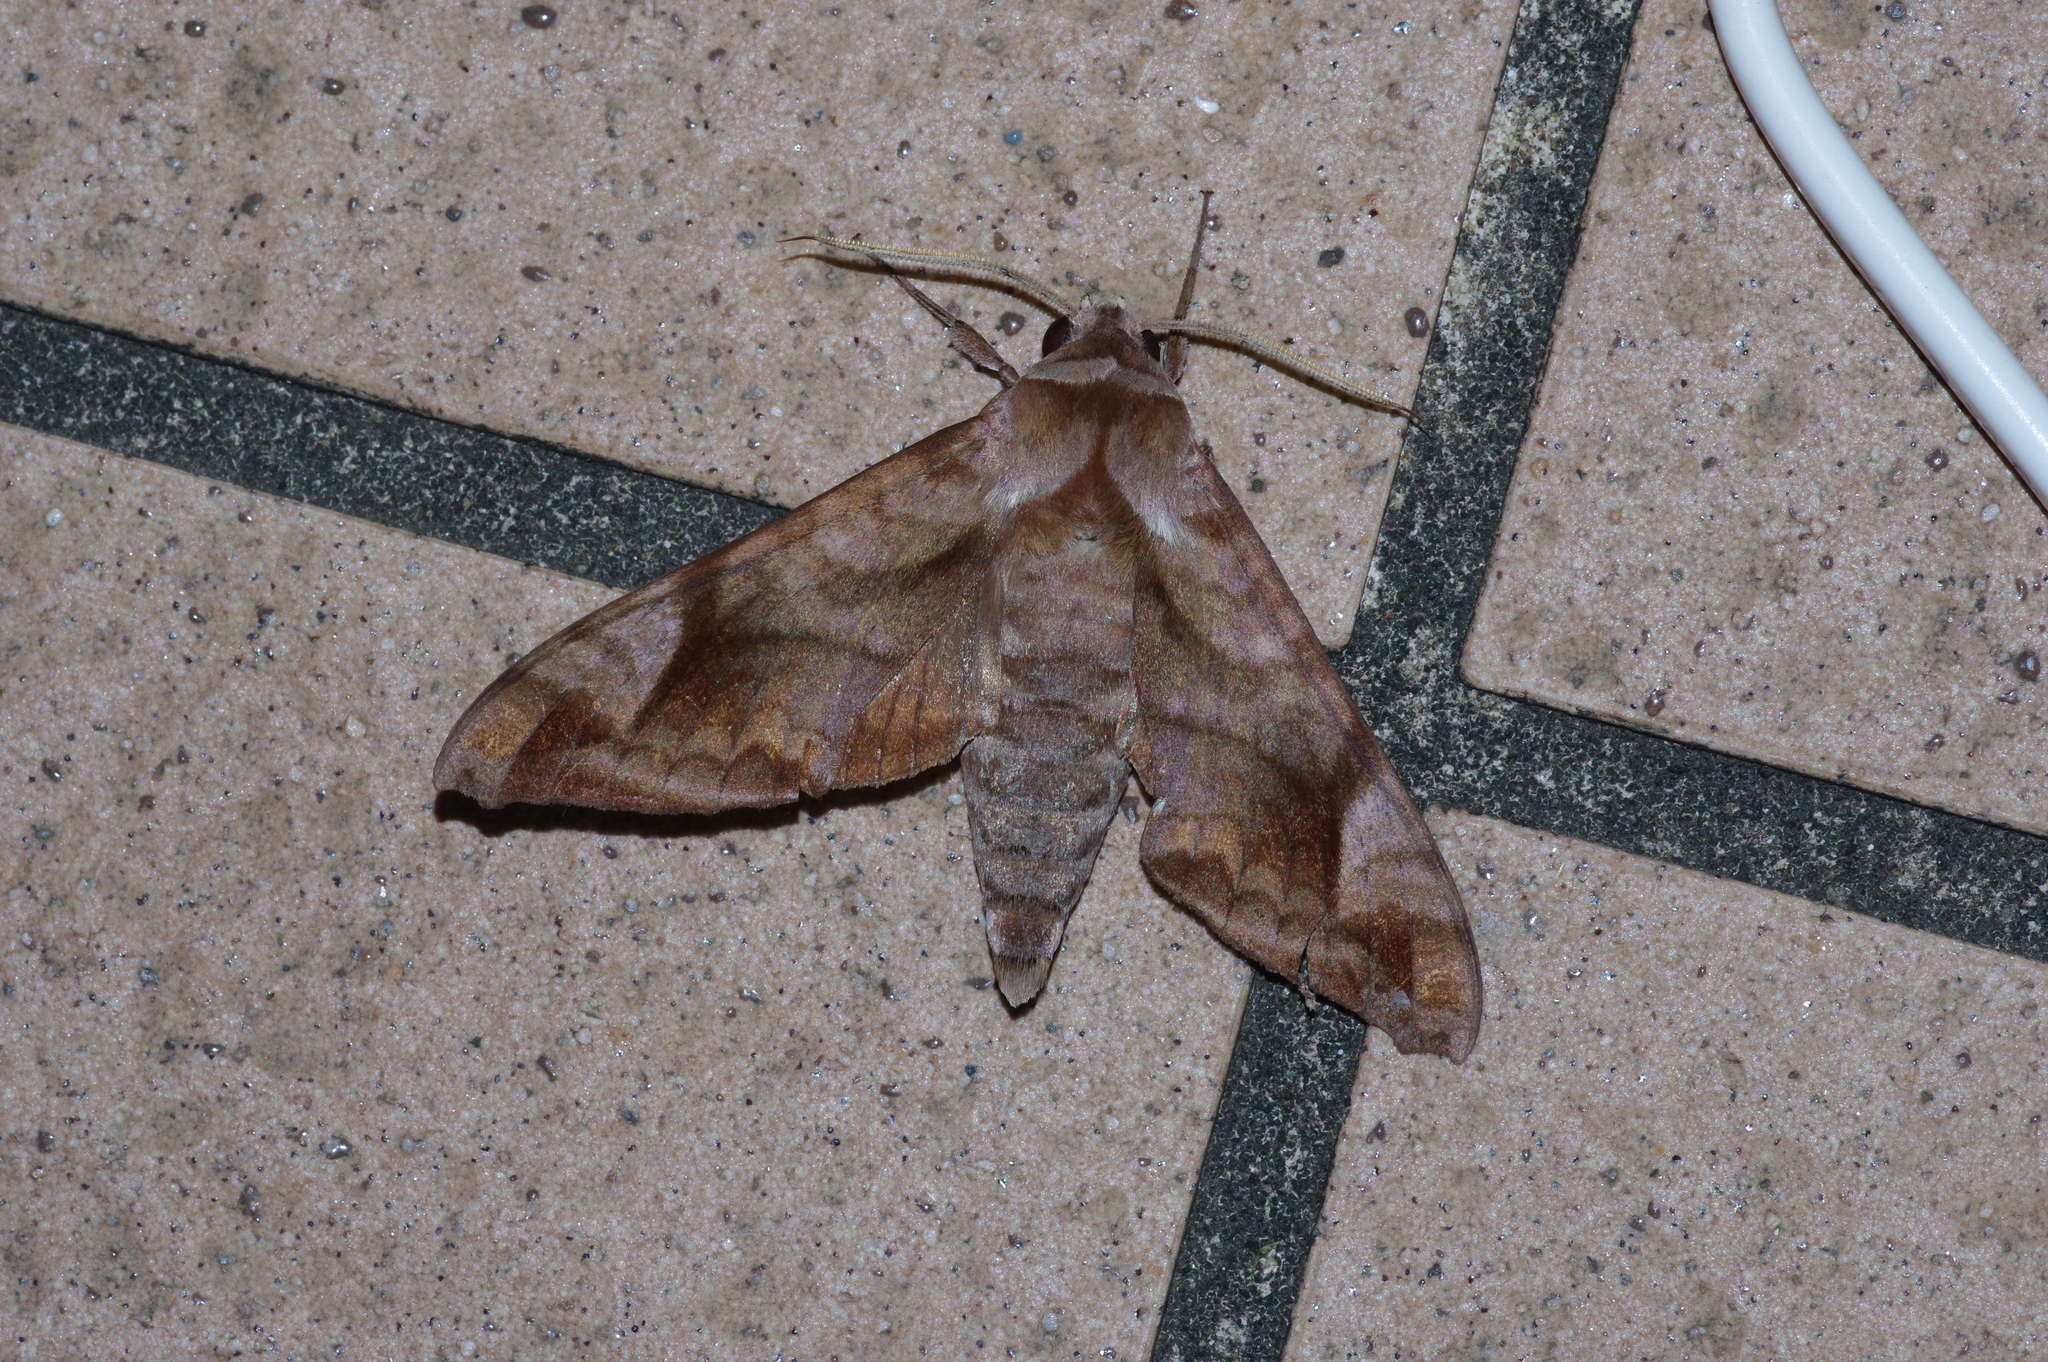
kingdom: Animalia
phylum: Arthropoda
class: Insecta
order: Lepidoptera
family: Sphingidae
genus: Acosmeryx
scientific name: Acosmeryx naga
